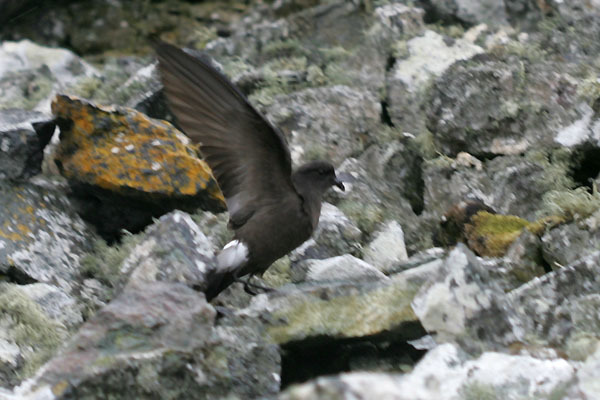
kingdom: Animalia
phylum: Chordata
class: Aves
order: Procellariiformes
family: Hydrobatidae
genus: Oceanites
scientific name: Oceanites oceanicus
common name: Wilson's storm petrel
